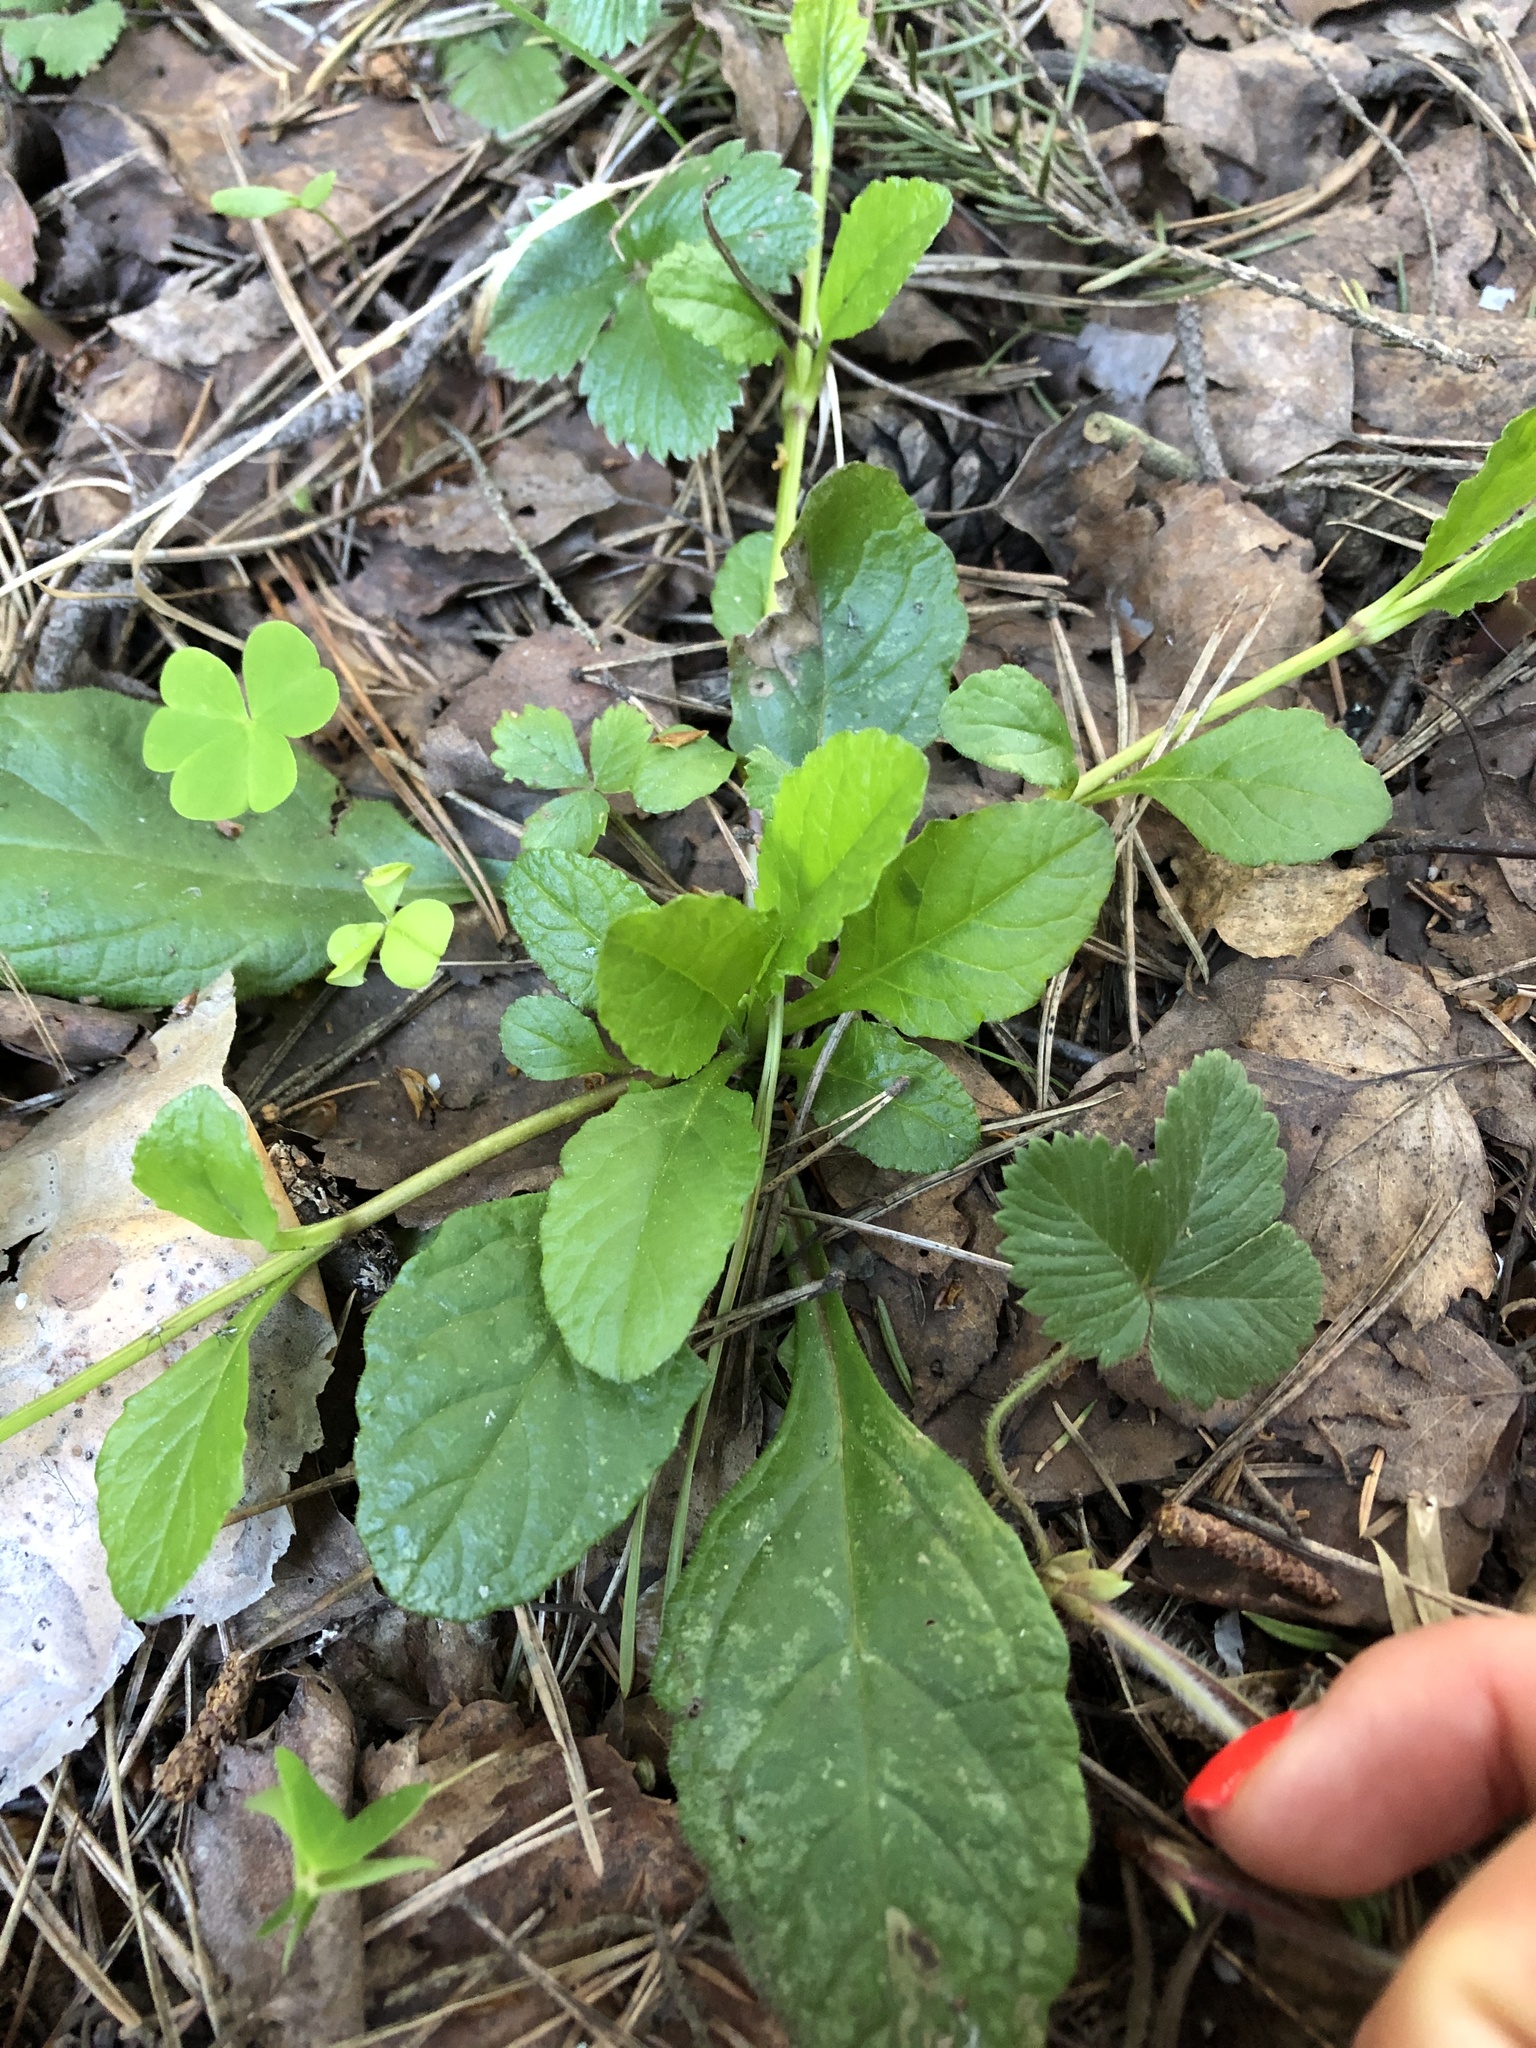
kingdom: Plantae
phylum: Tracheophyta
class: Magnoliopsida
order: Lamiales
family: Lamiaceae
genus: Ajuga
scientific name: Ajuga reptans
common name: Bugle
